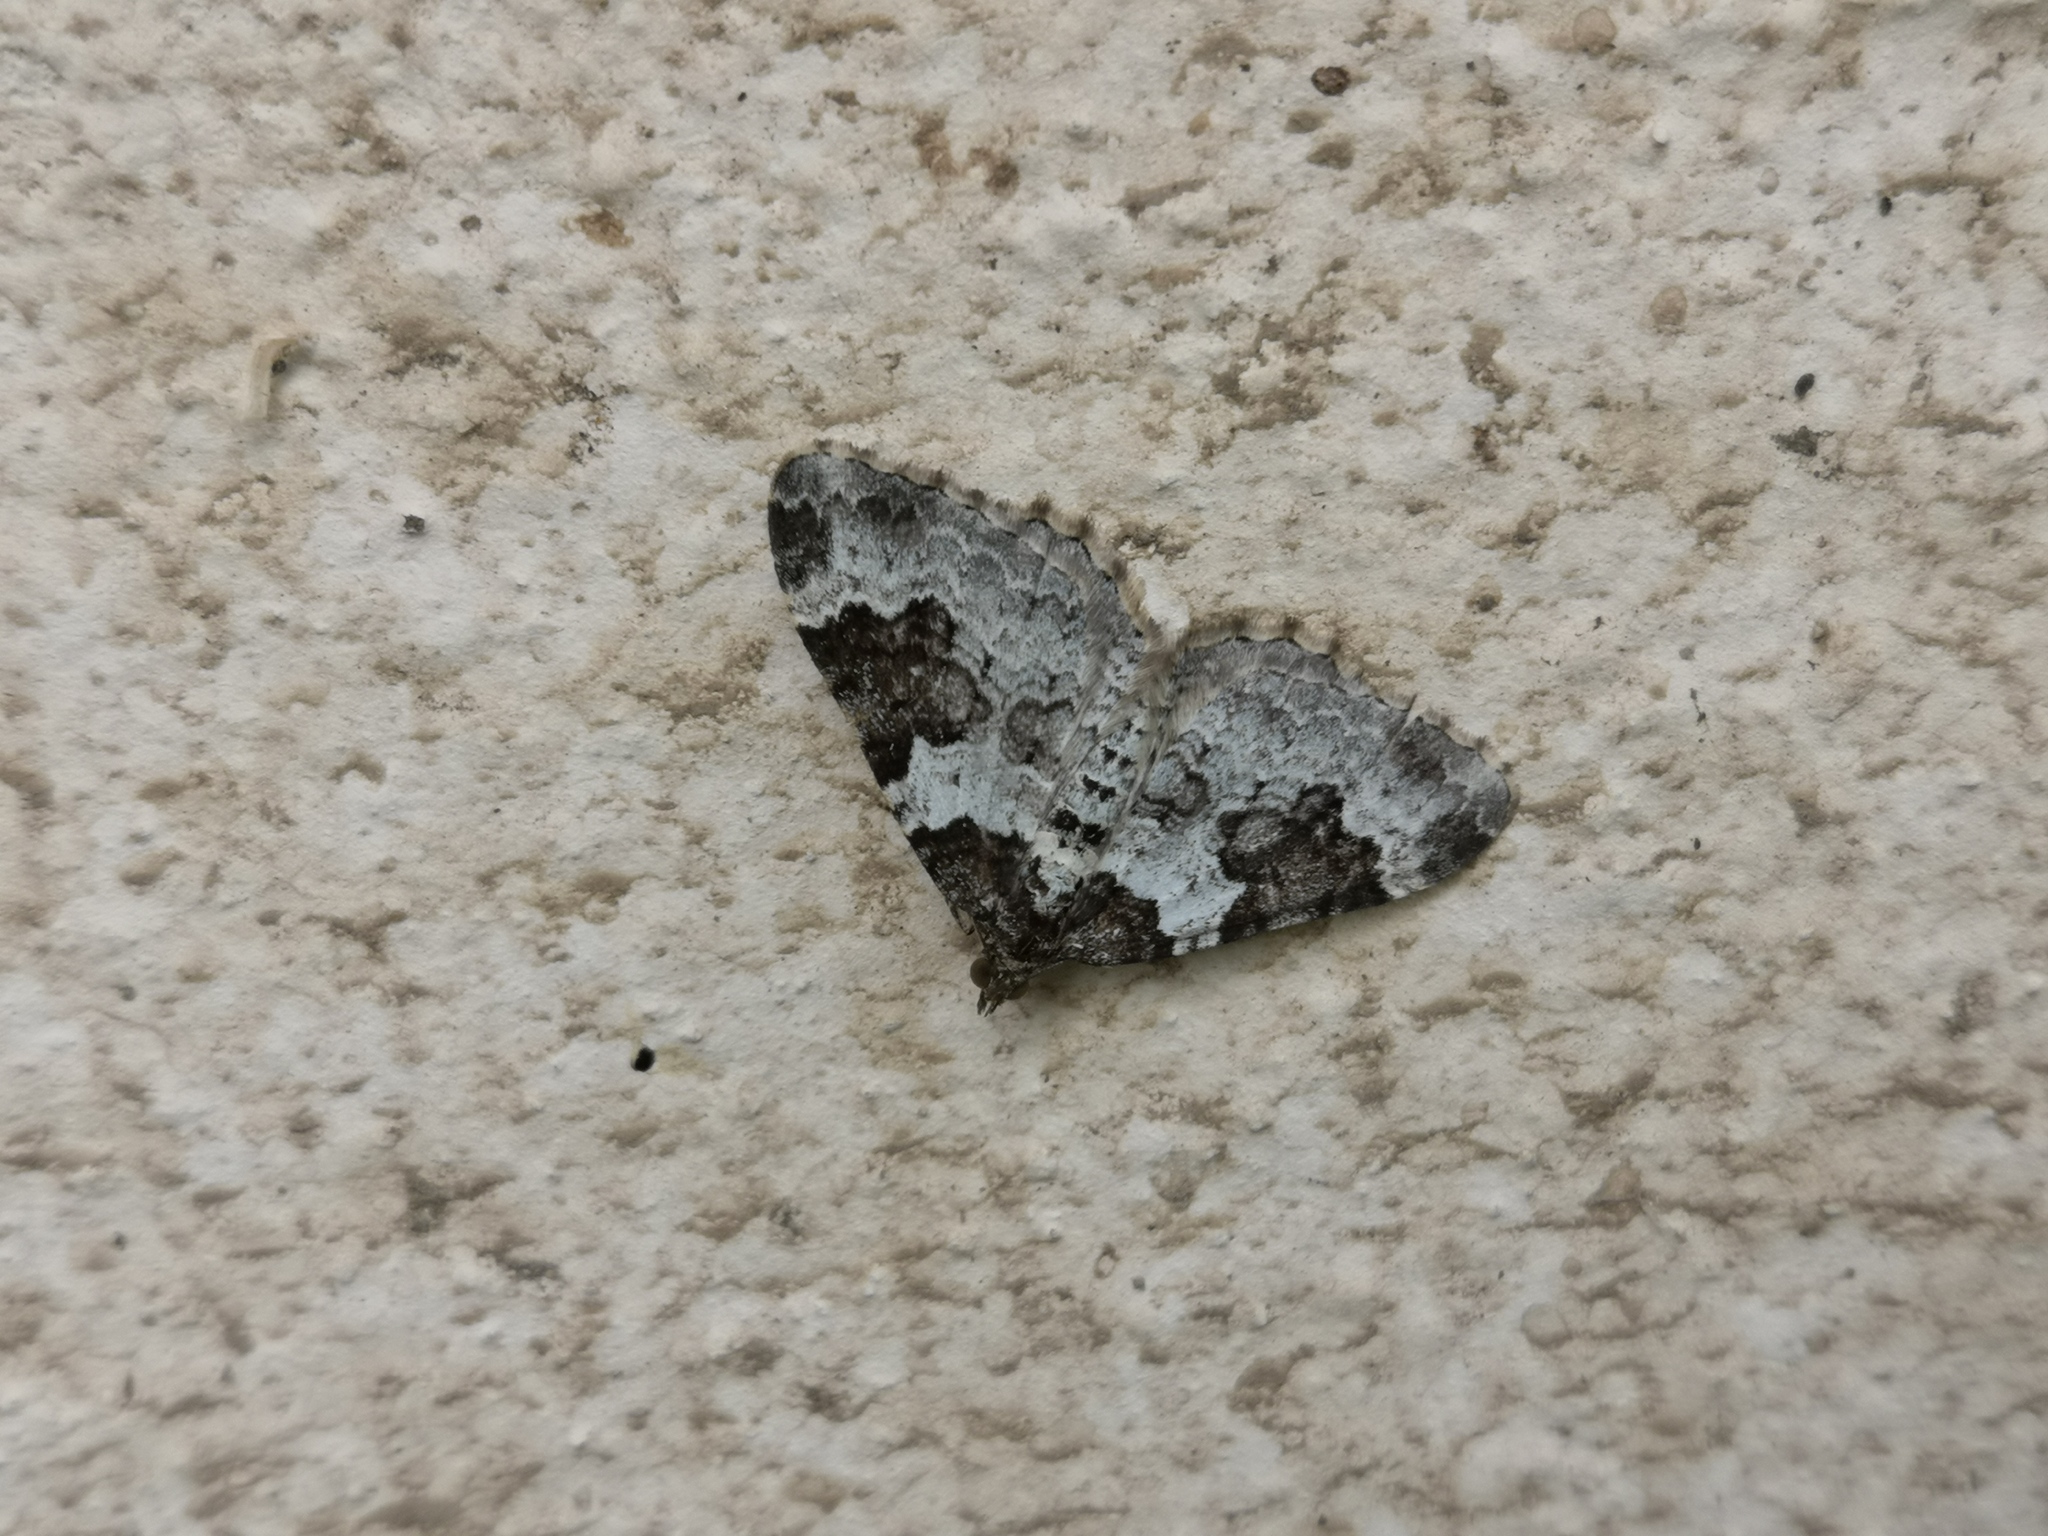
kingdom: Animalia
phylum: Arthropoda
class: Insecta
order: Lepidoptera
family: Geometridae
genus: Xanthorhoe
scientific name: Xanthorhoe fluctuata
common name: Garden carpet
